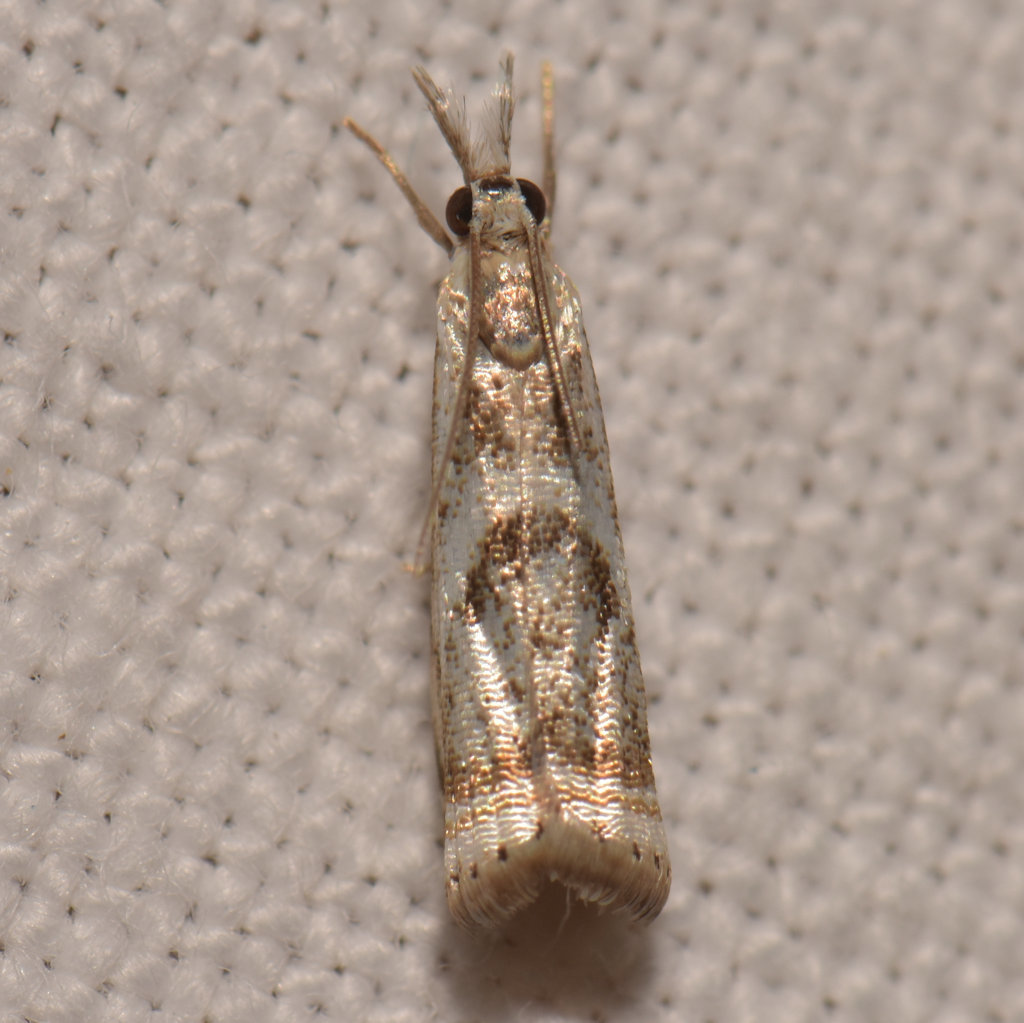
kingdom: Animalia
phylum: Arthropoda
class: Insecta
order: Lepidoptera
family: Crambidae
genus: Microcrambus
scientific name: Microcrambus elegans
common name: Elegant grass-veneer
